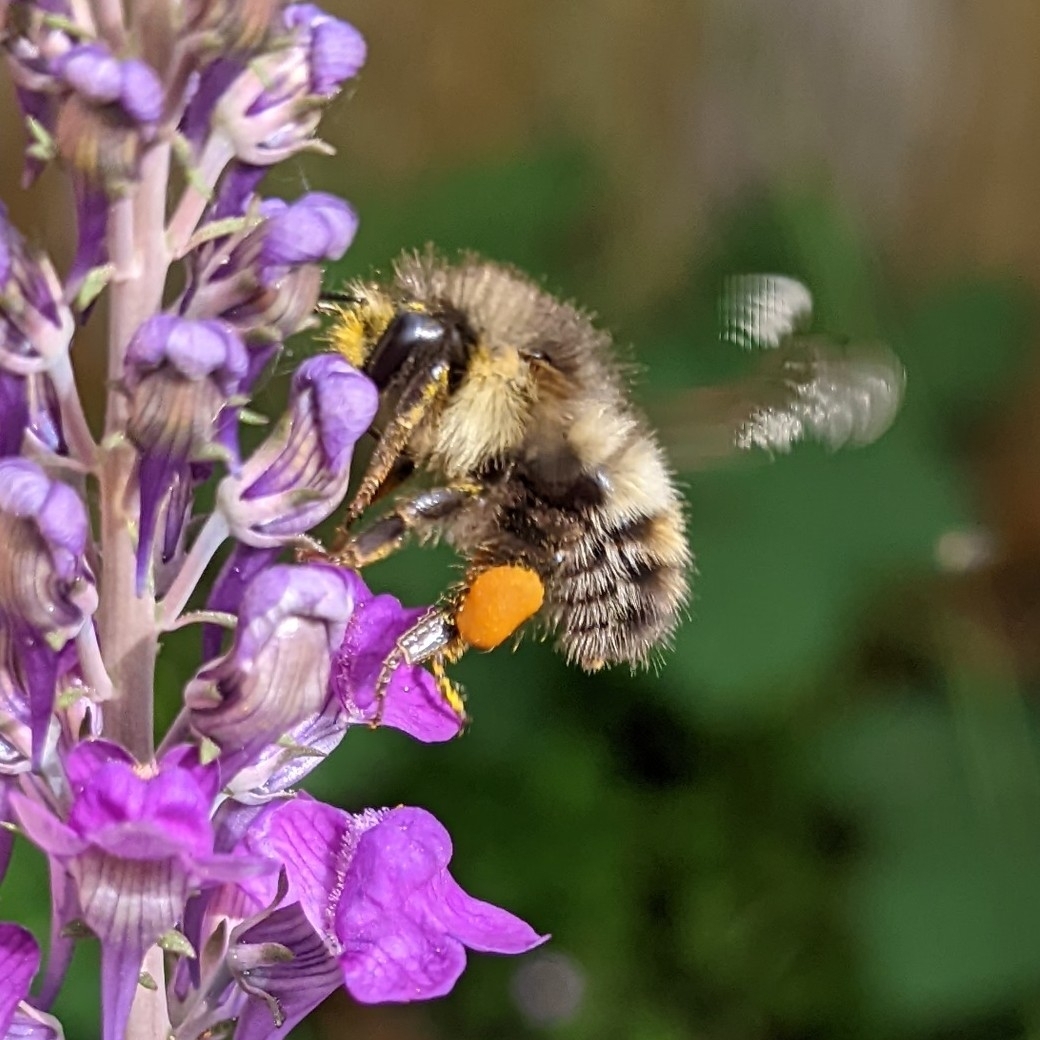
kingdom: Animalia
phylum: Arthropoda
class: Insecta
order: Hymenoptera
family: Apidae
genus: Bombus
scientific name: Bombus flavifrons
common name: Yellow head bumble bee
